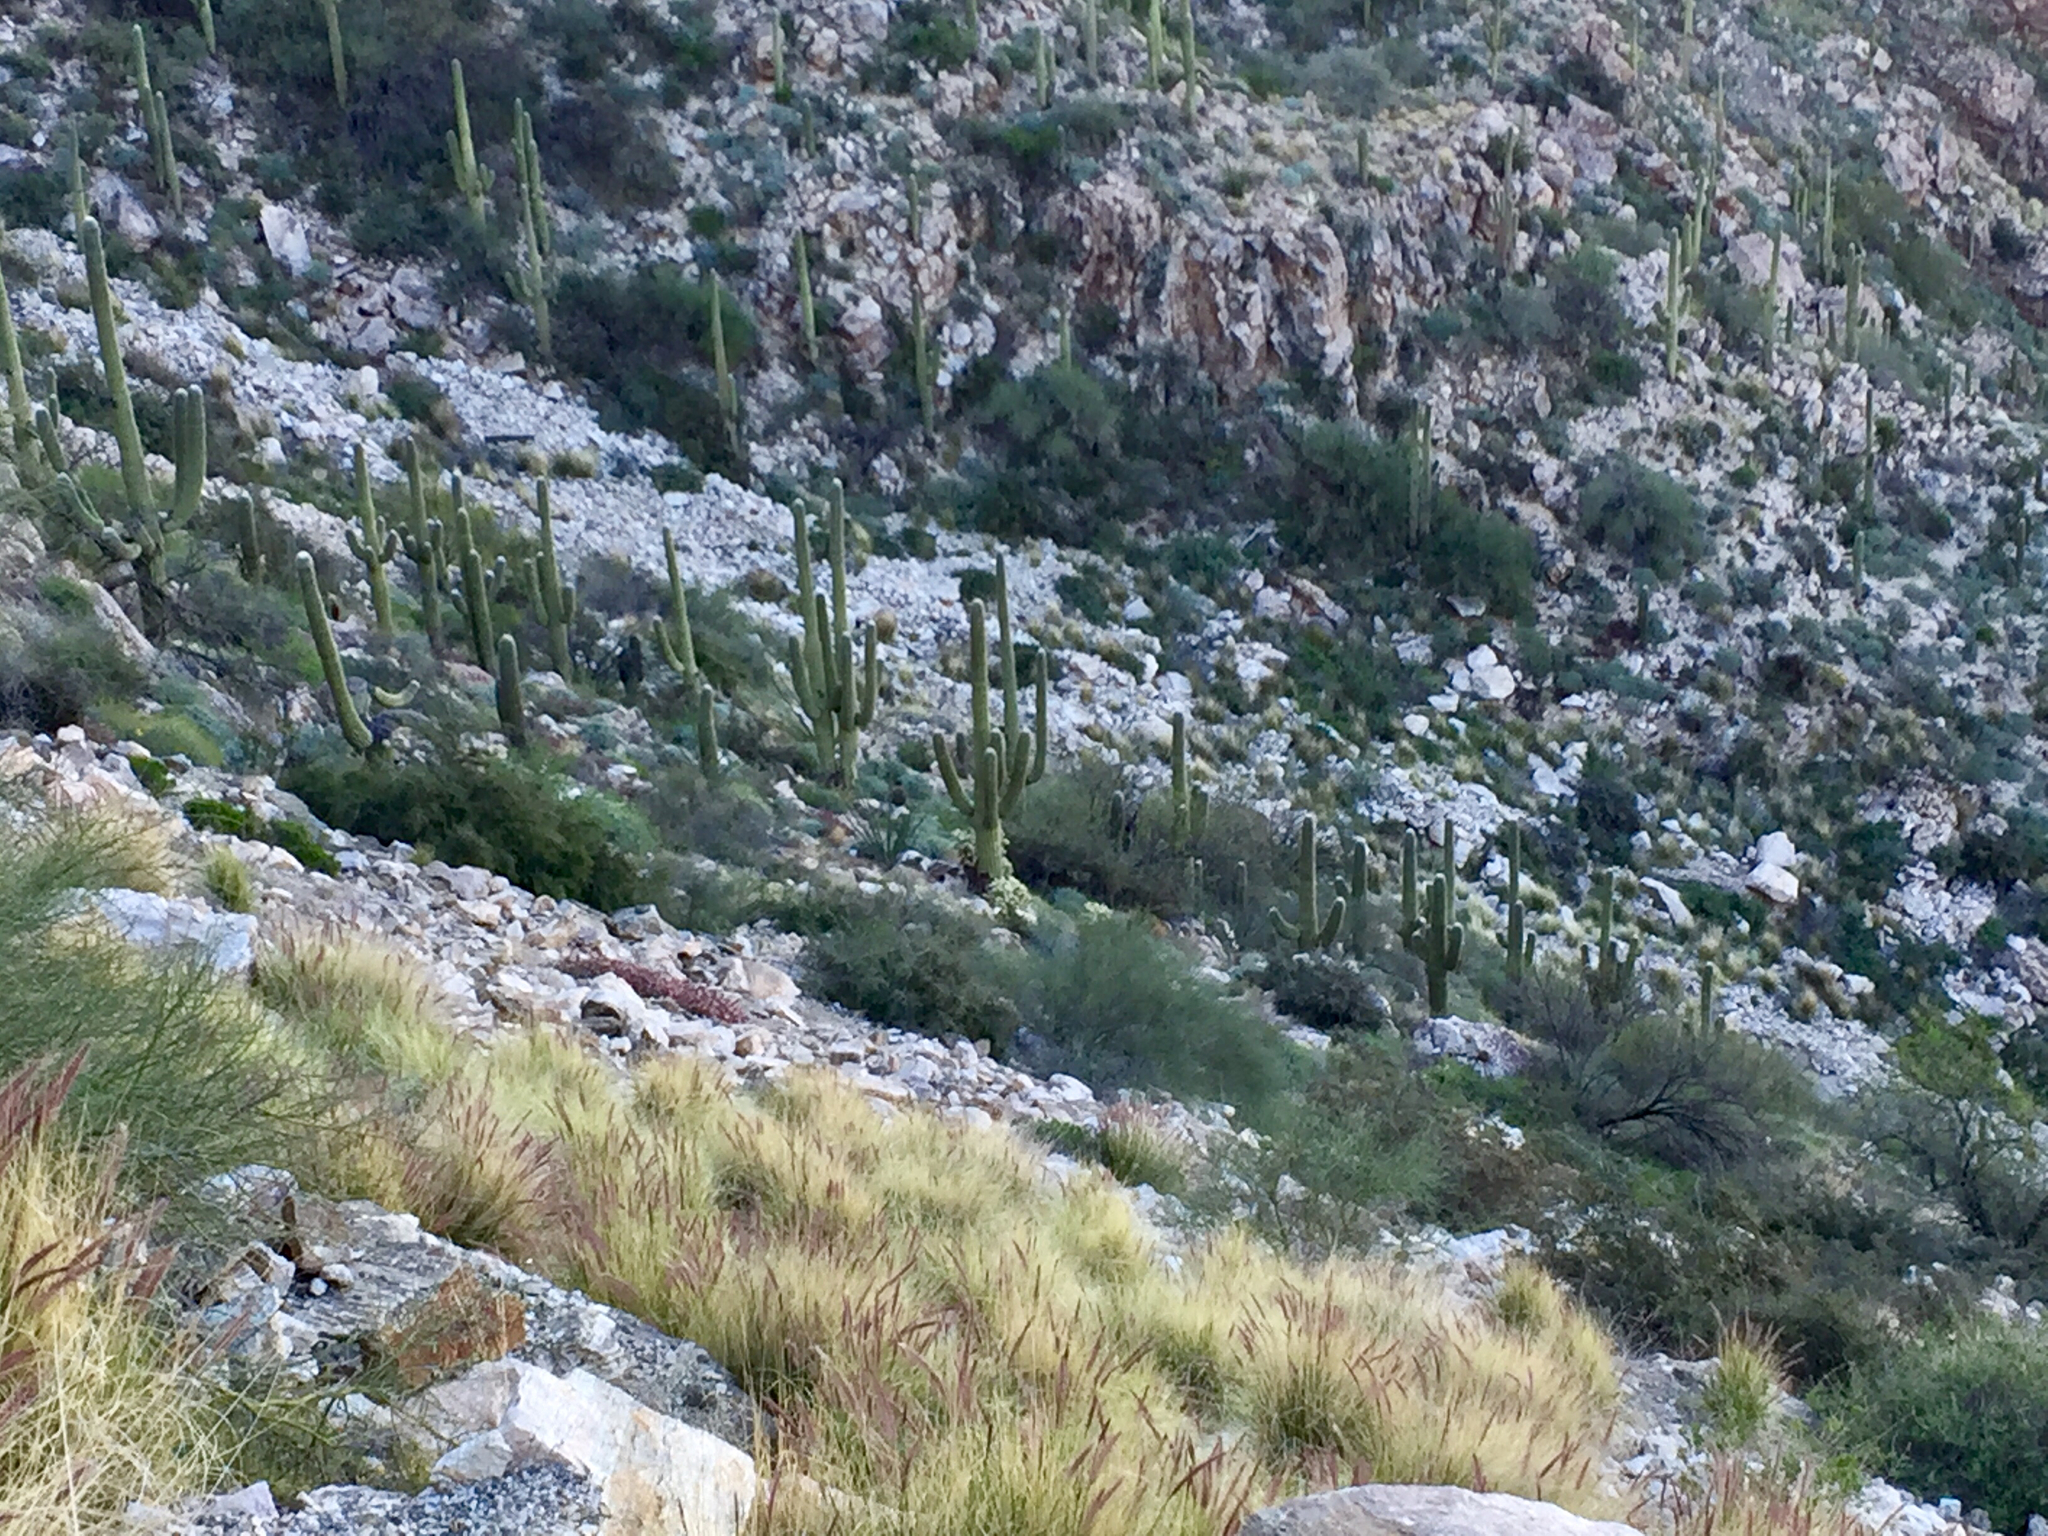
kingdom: Plantae
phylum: Tracheophyta
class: Magnoliopsida
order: Caryophyllales
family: Cactaceae
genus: Carnegiea
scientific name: Carnegiea gigantea
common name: Saguaro
